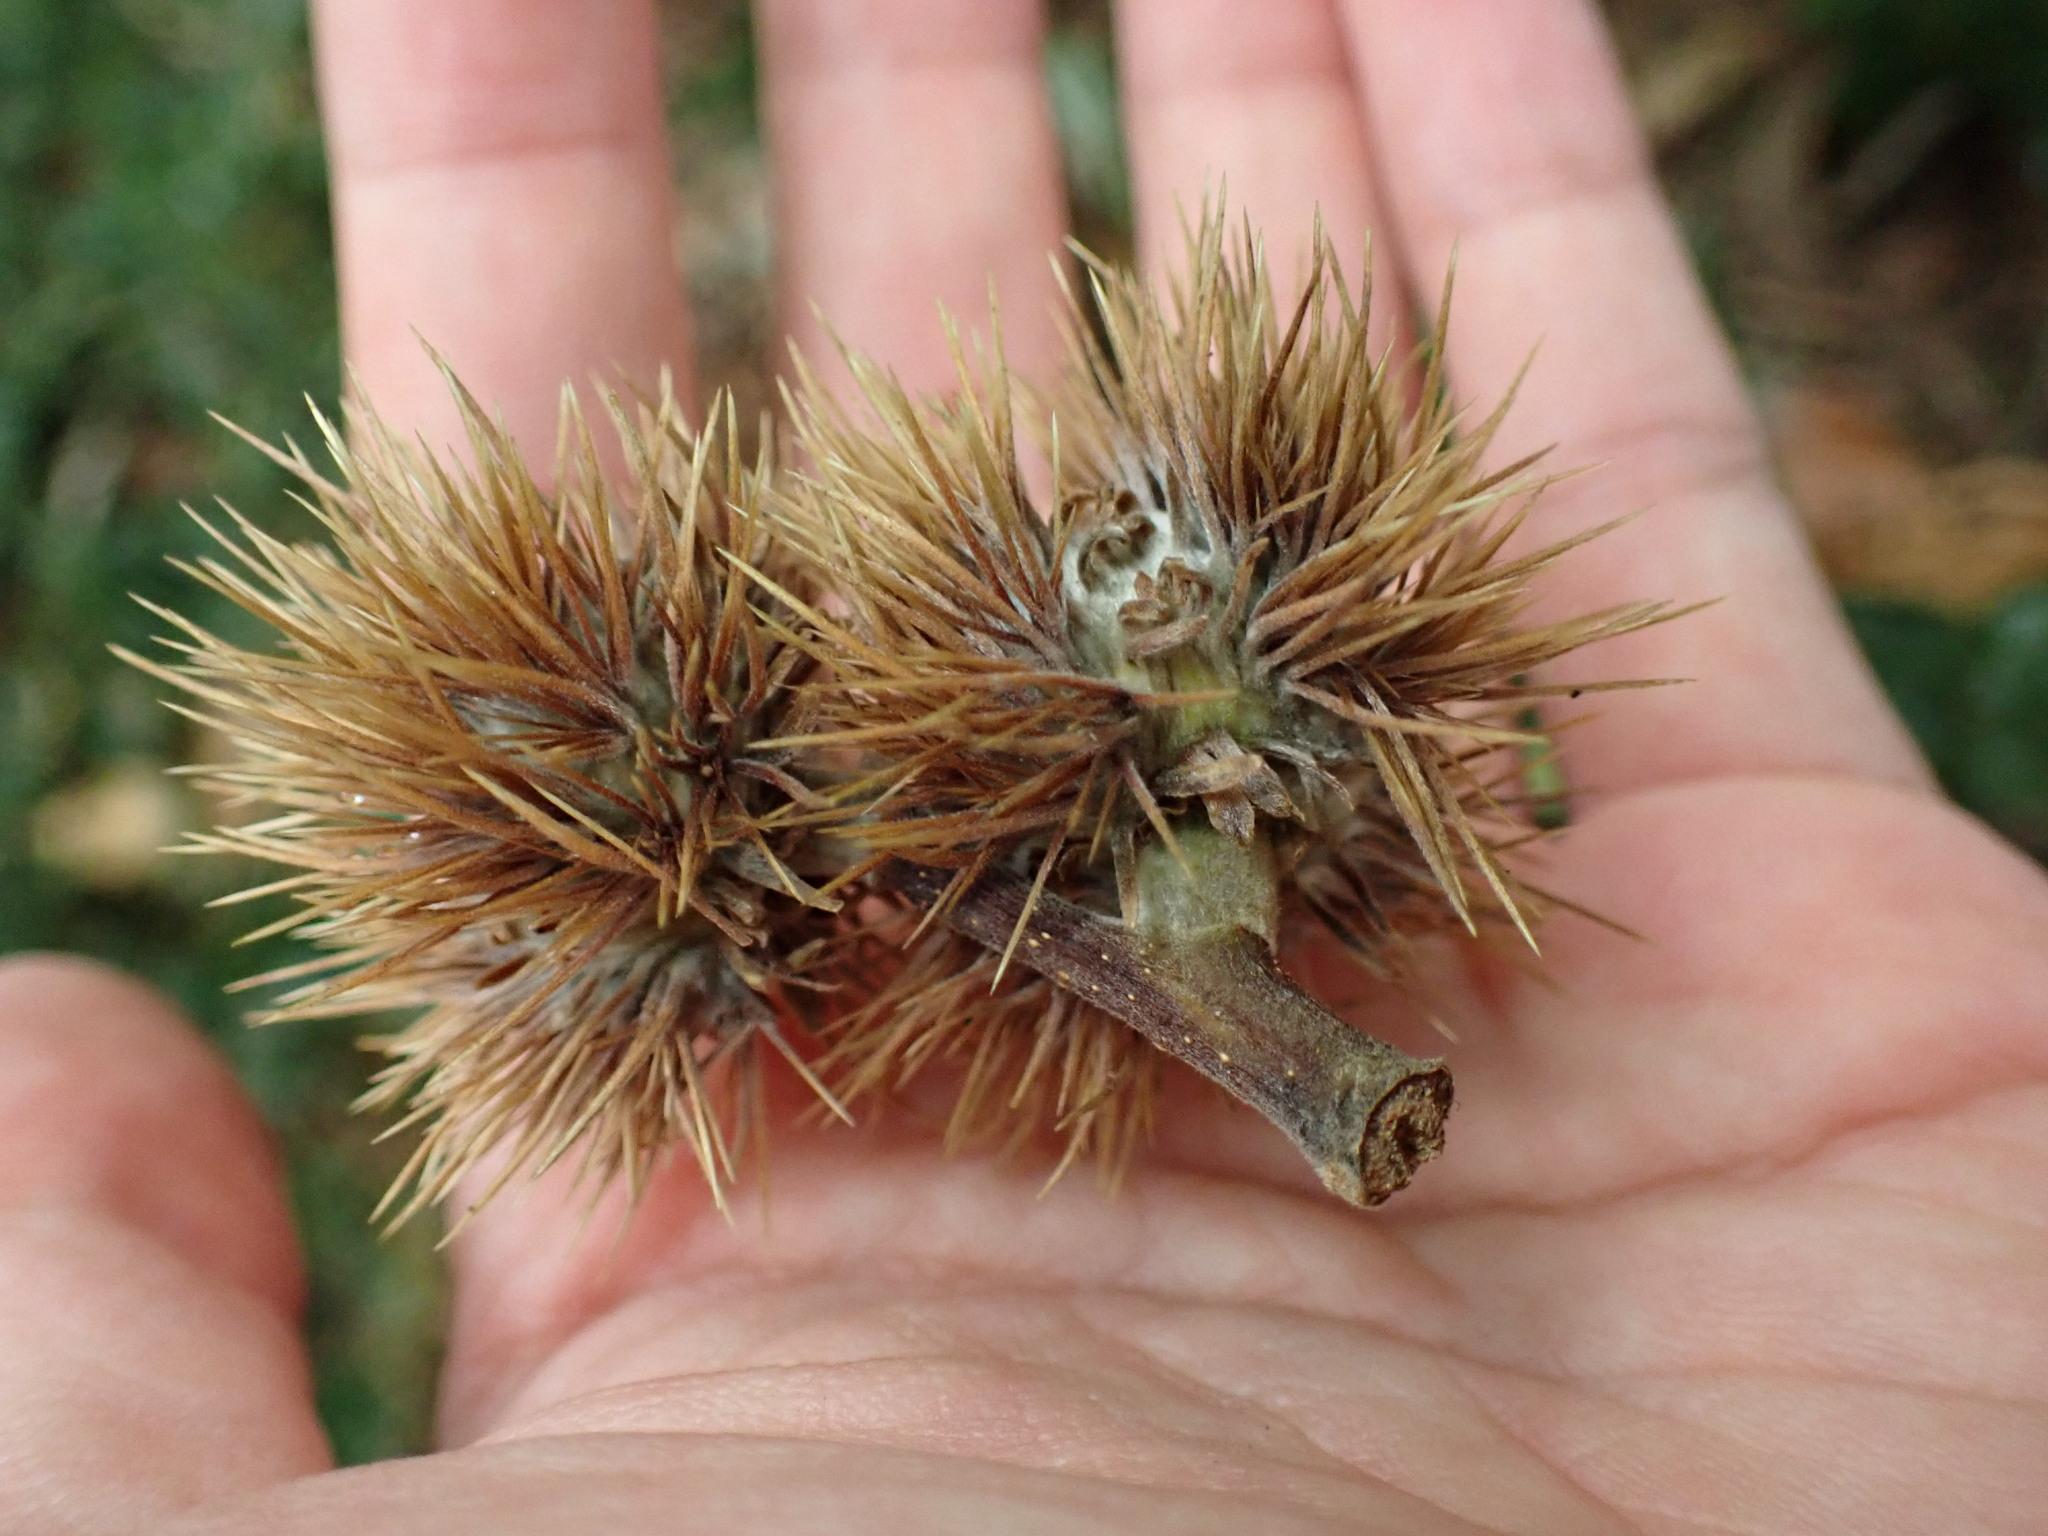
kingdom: Plantae
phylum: Tracheophyta
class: Magnoliopsida
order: Fagales
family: Fagaceae
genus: Castanea
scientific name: Castanea sativa
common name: Sweet chestnut
